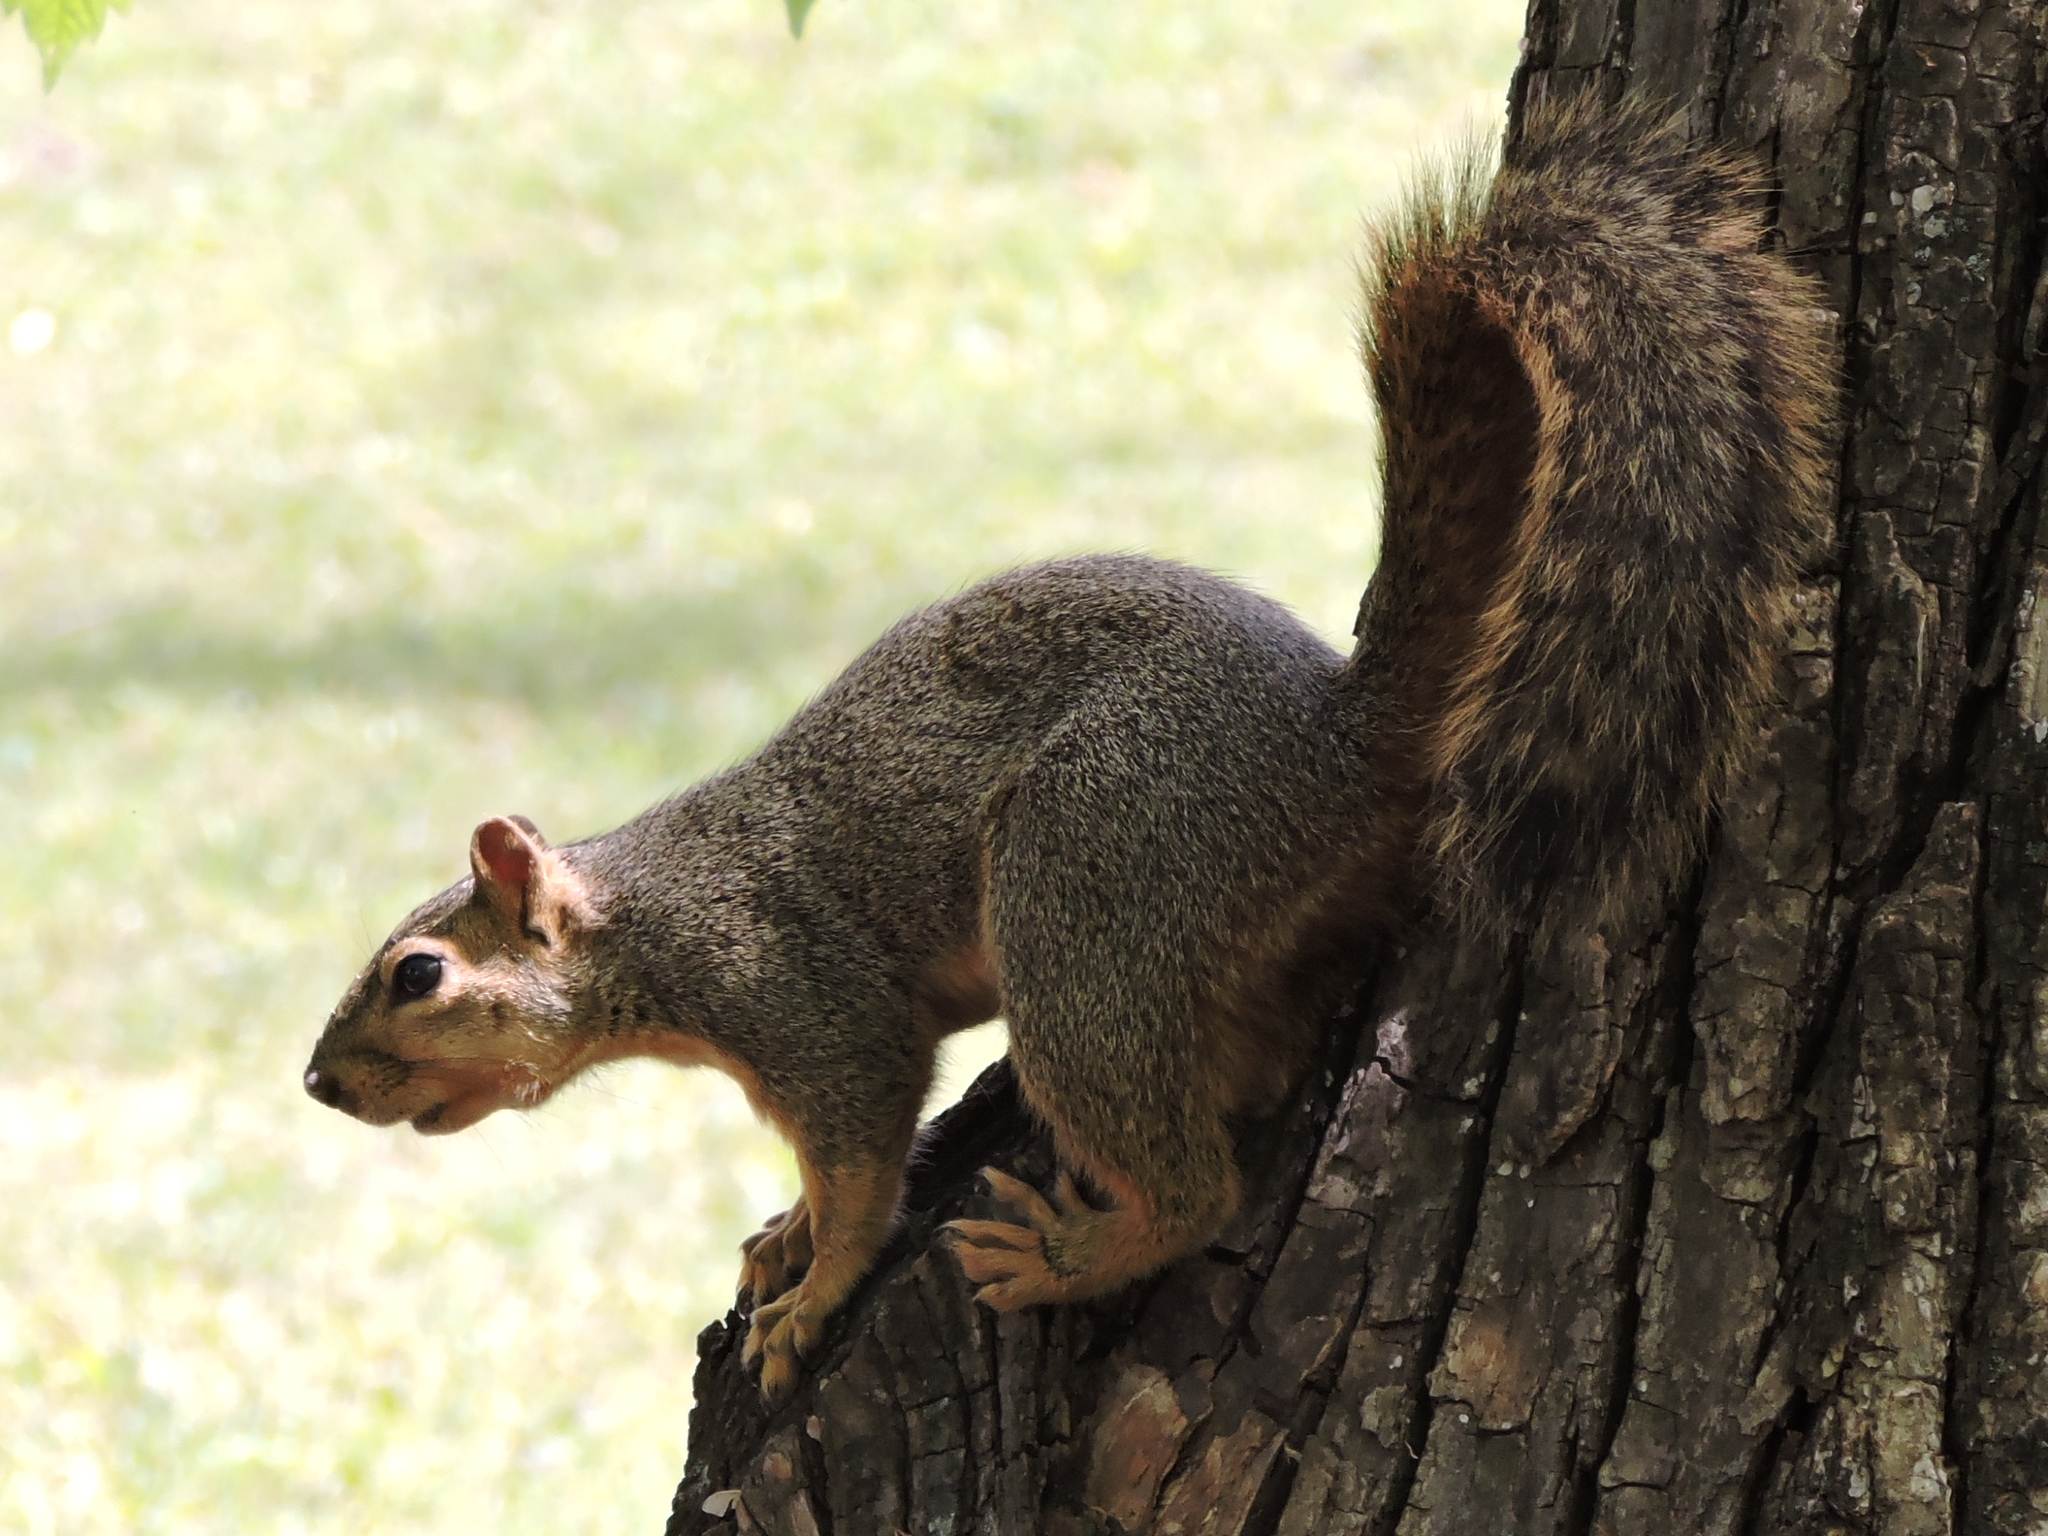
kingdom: Animalia
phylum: Chordata
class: Mammalia
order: Rodentia
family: Sciuridae
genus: Sciurus
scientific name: Sciurus niger
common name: Fox squirrel
